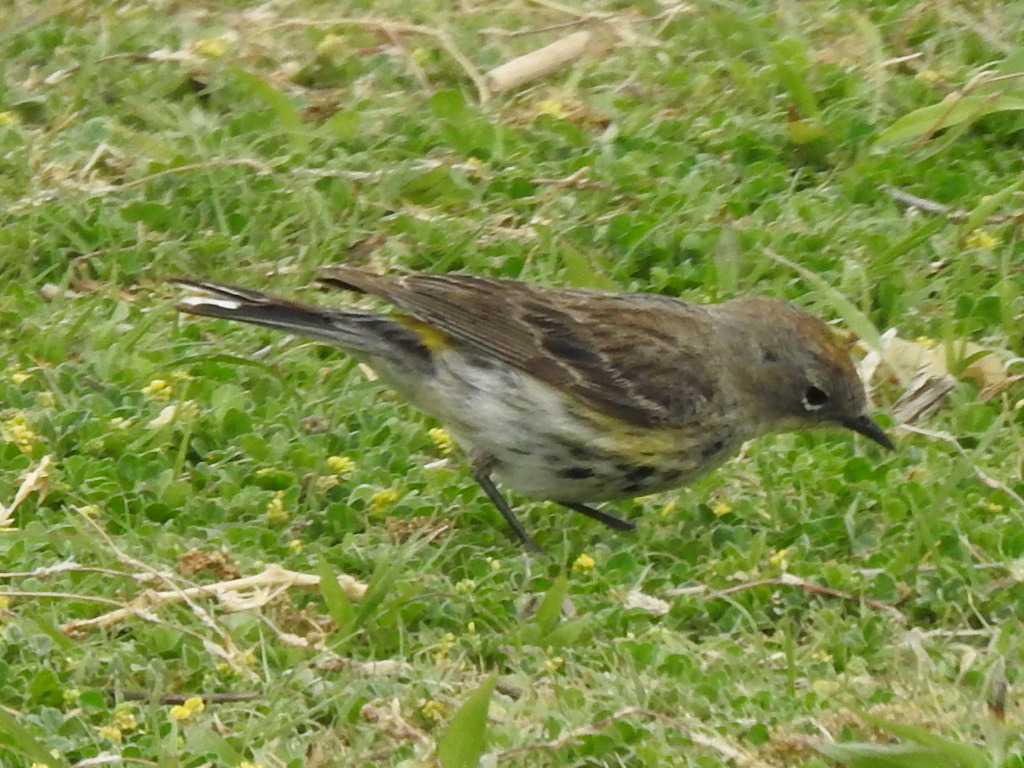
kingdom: Animalia
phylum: Chordata
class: Aves
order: Passeriformes
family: Parulidae
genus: Setophaga
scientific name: Setophaga coronata
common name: Myrtle warbler
